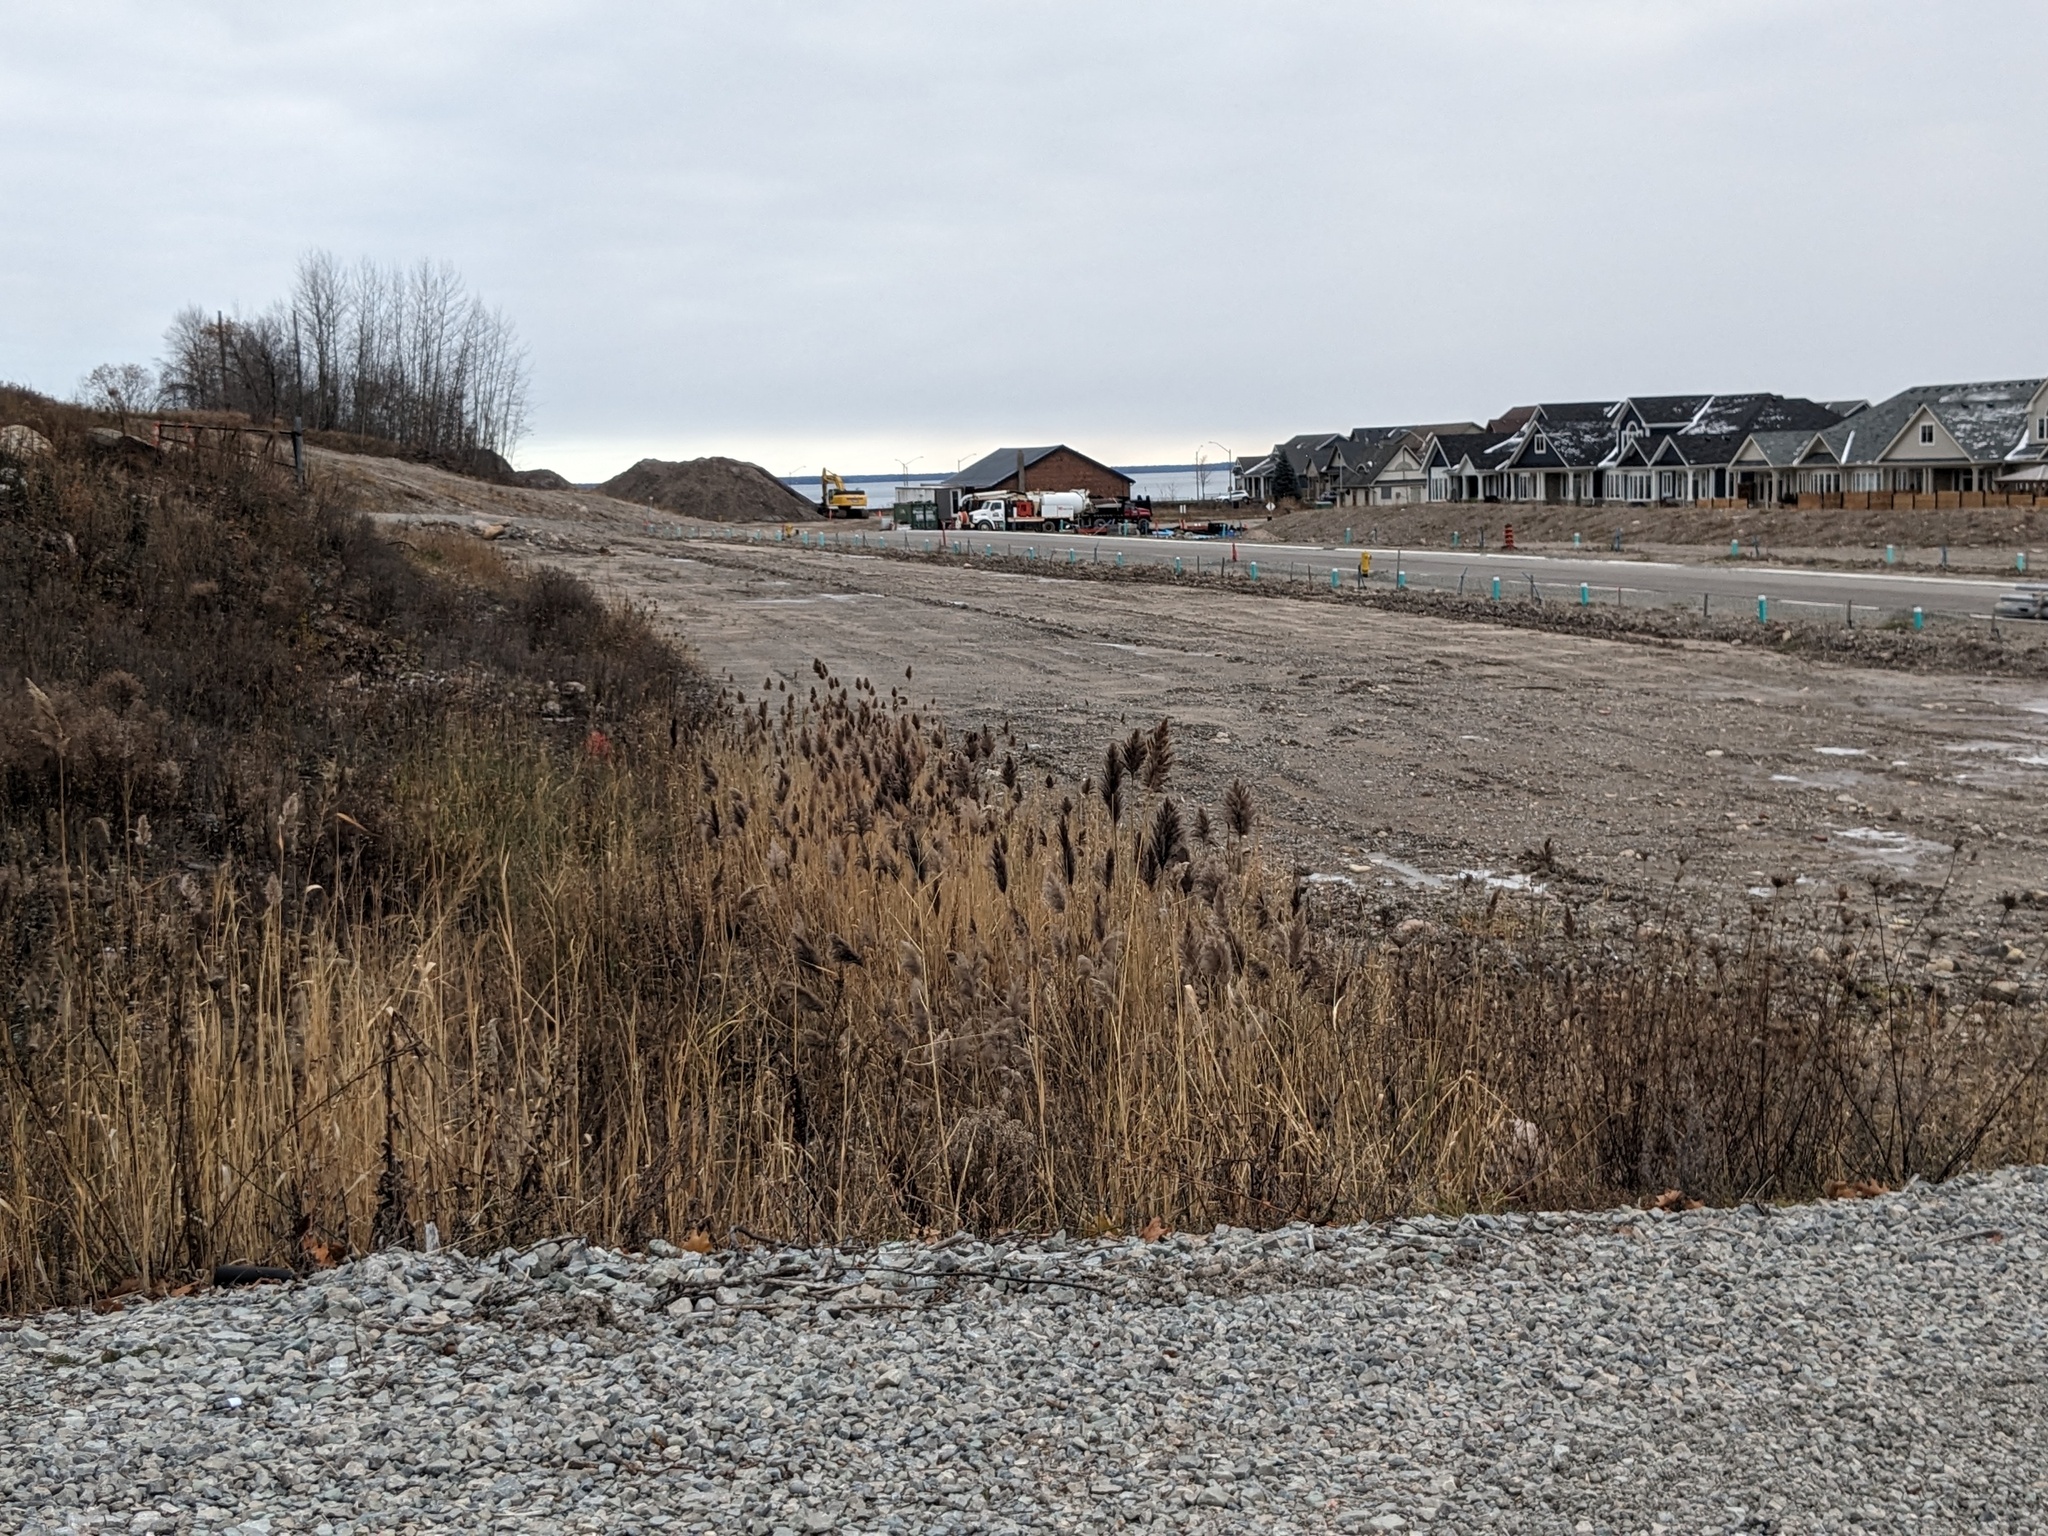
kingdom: Plantae
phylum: Tracheophyta
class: Liliopsida
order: Poales
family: Poaceae
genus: Phragmites
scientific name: Phragmites australis
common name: Common reed
